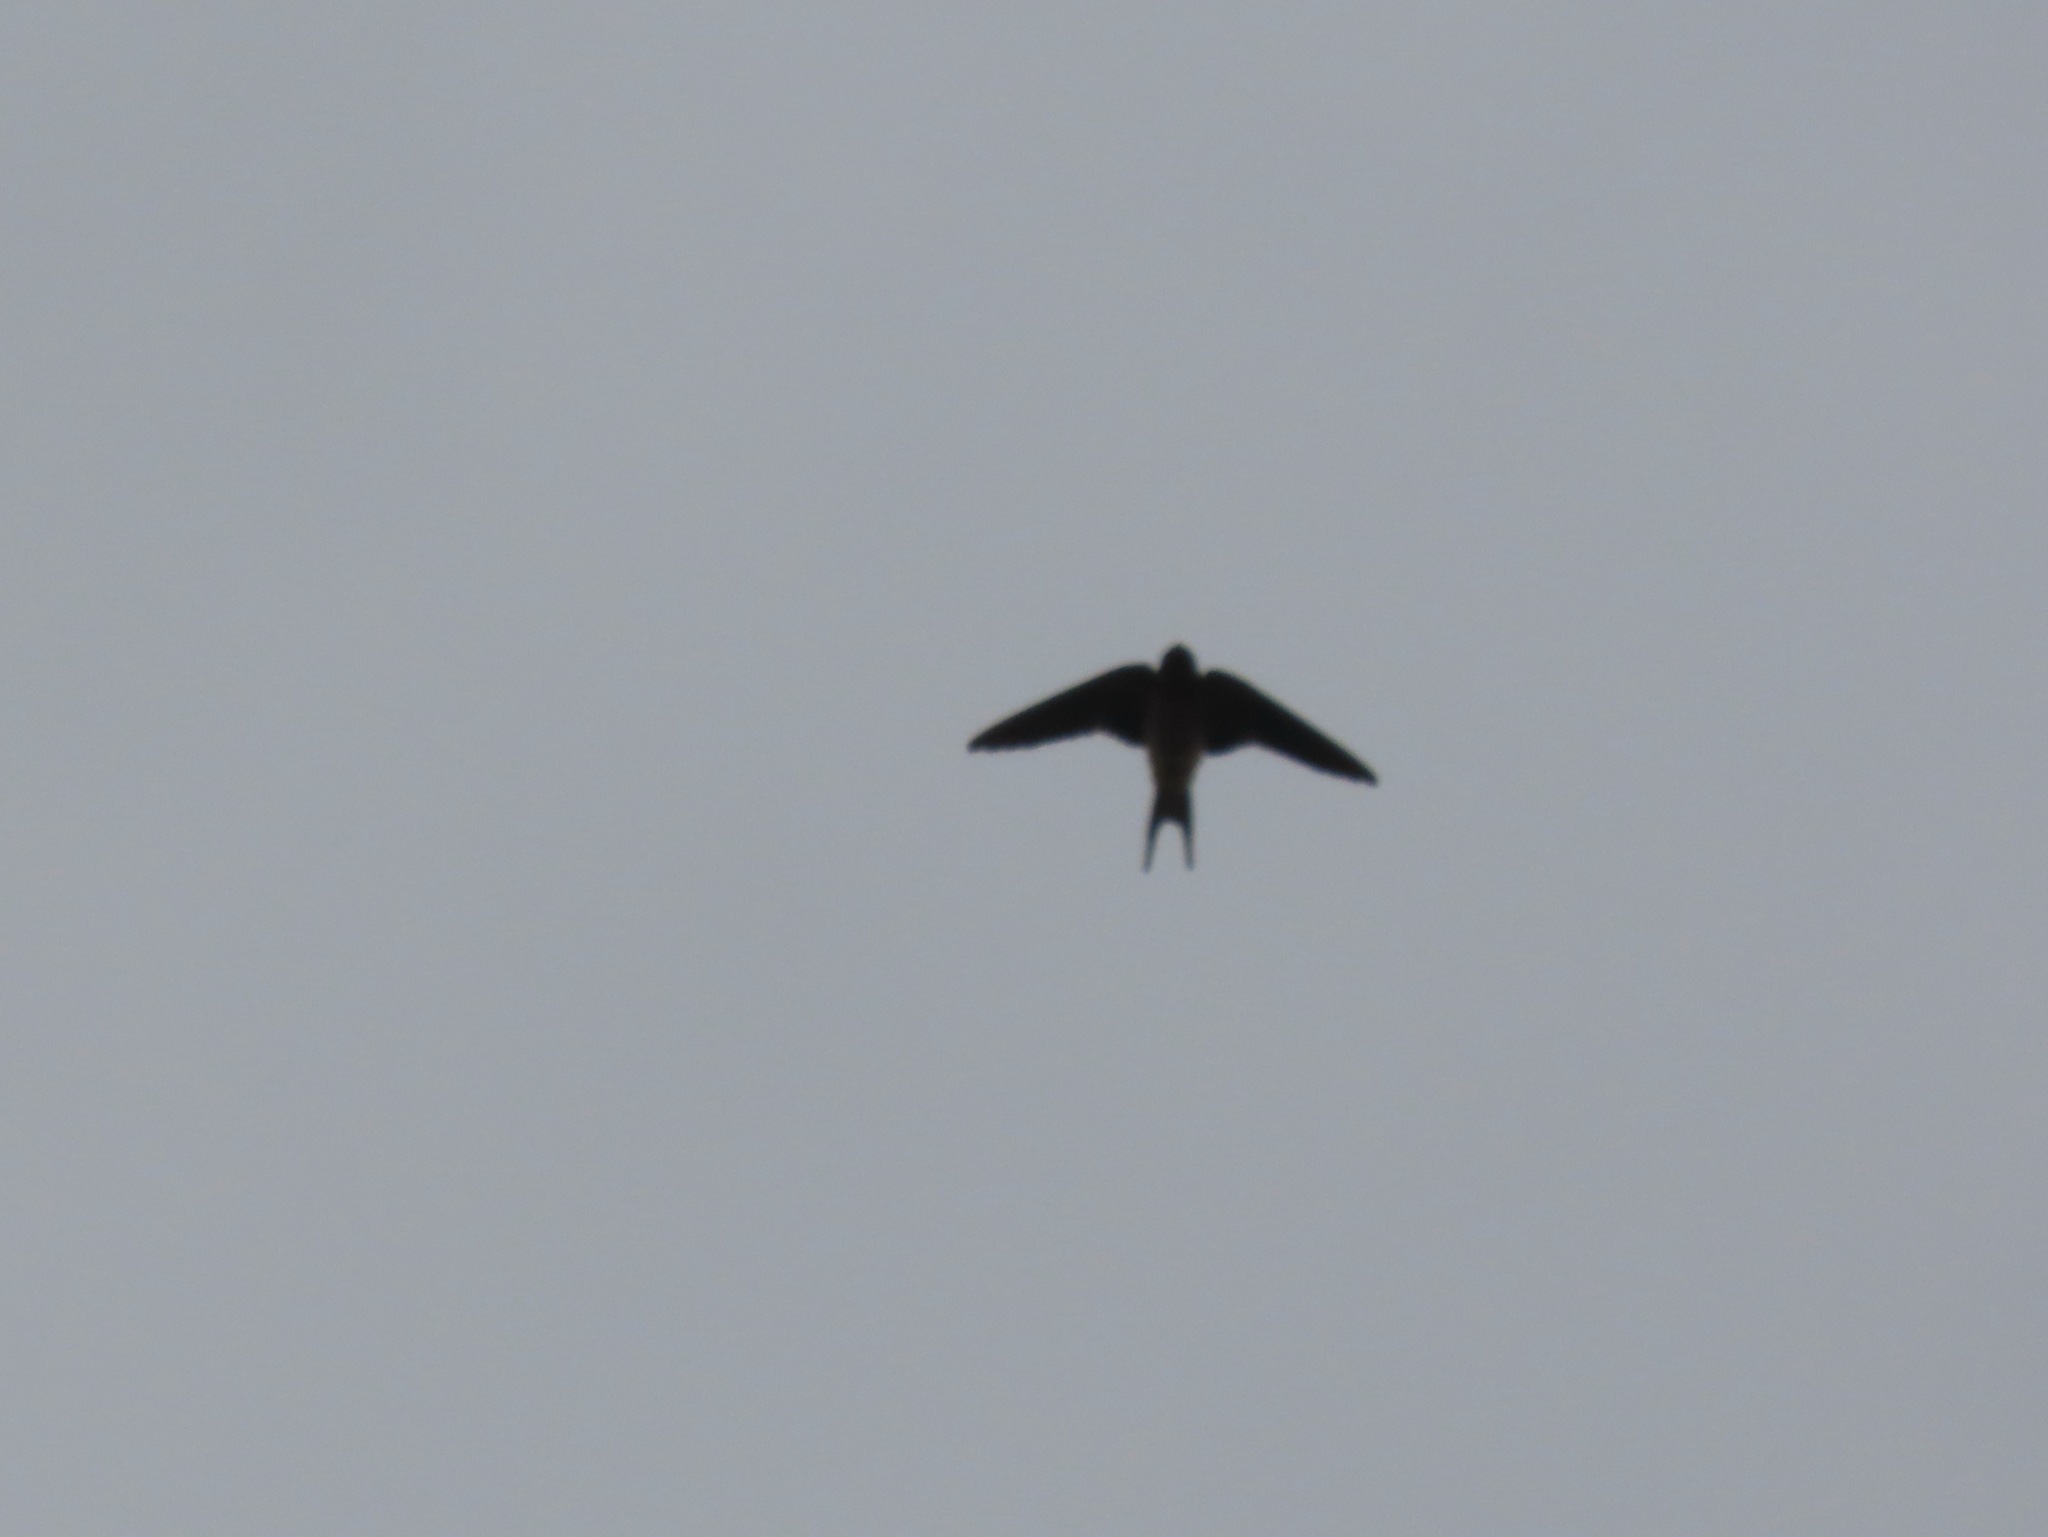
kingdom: Animalia
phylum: Chordata
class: Aves
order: Passeriformes
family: Hirundinidae
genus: Hirundo
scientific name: Hirundo rustica
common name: Barn swallow
